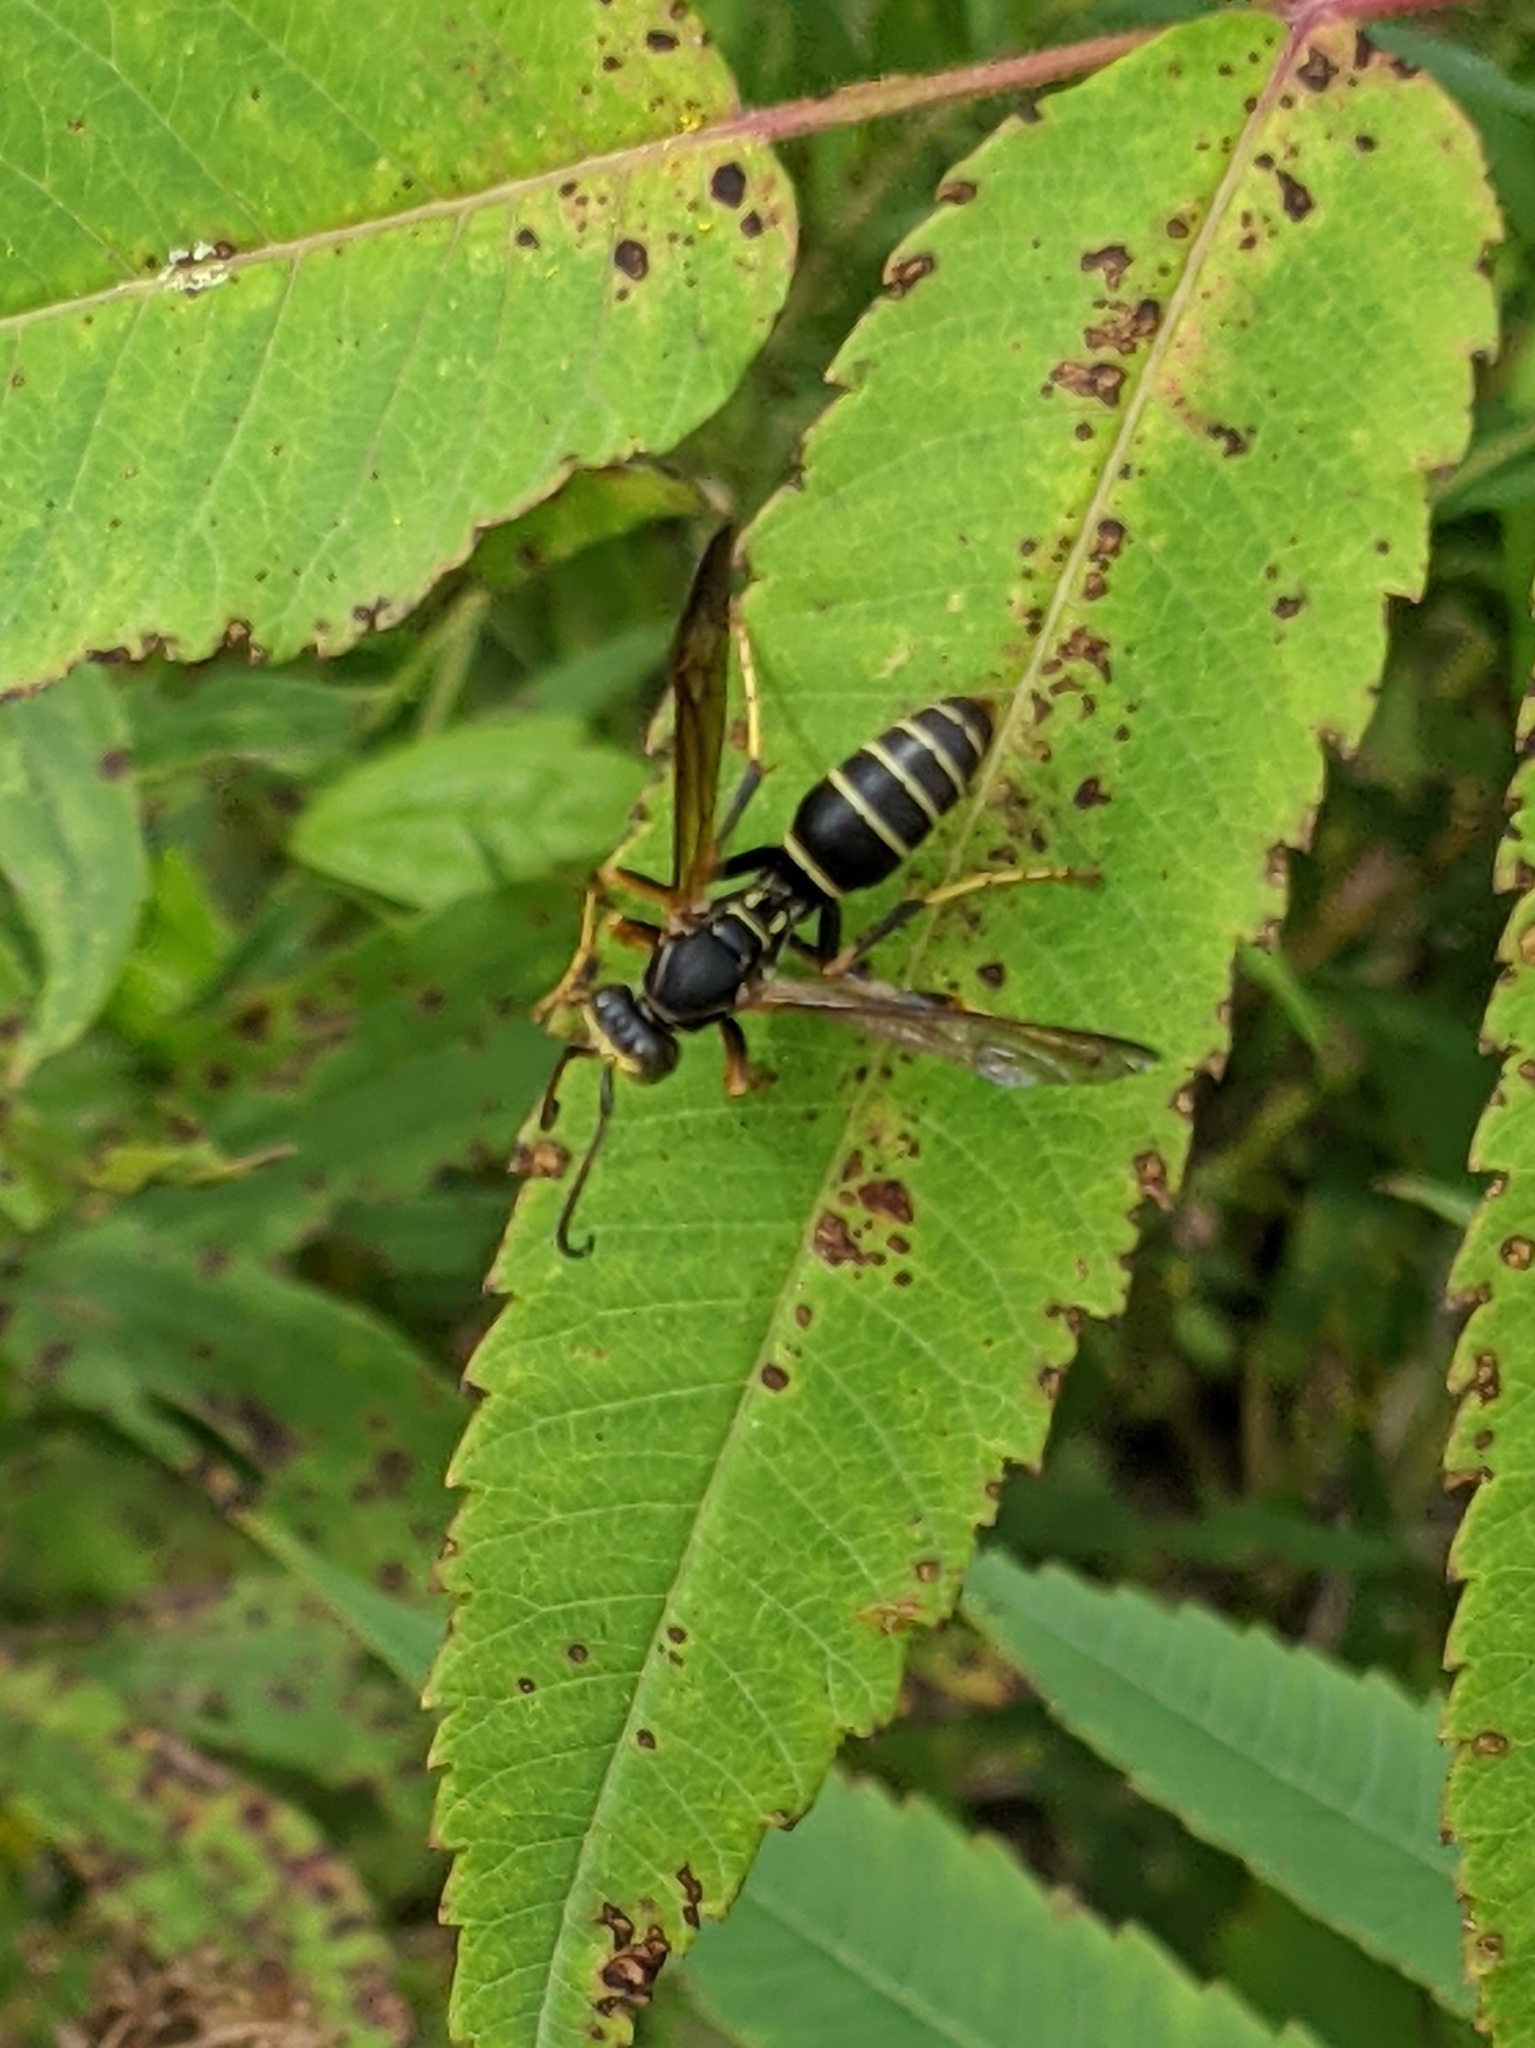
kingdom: Animalia
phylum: Arthropoda
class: Insecta
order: Hymenoptera
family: Eumenidae
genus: Polistes
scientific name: Polistes fuscatus
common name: Dark paper wasp
